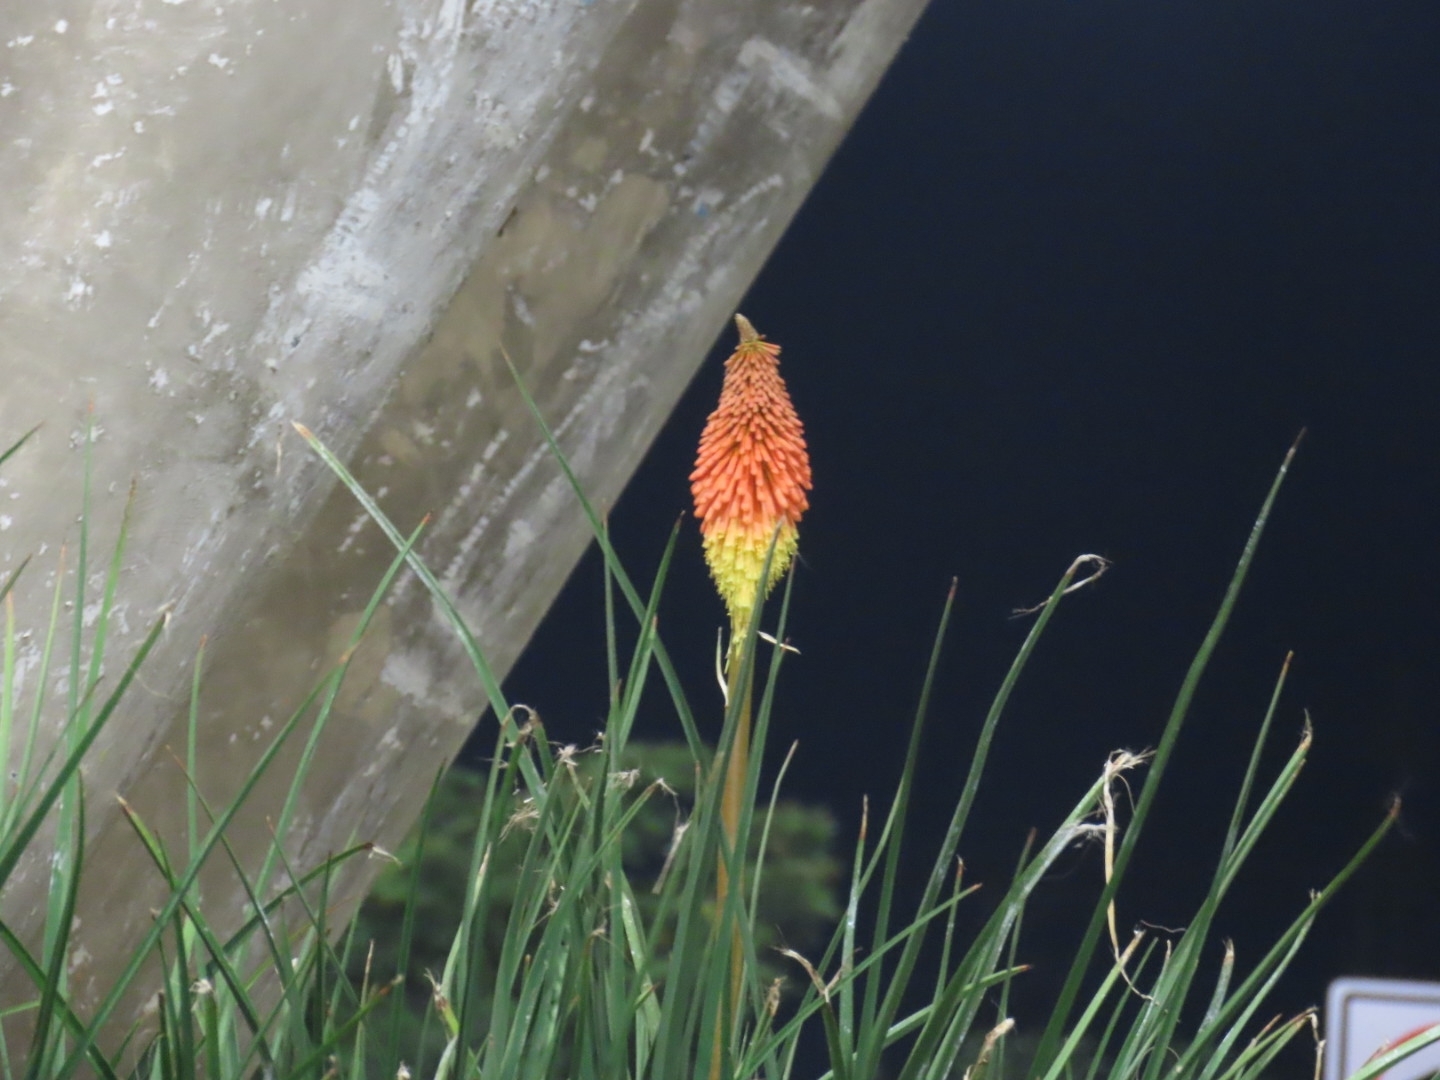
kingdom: Plantae
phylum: Tracheophyta
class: Liliopsida
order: Asparagales
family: Asphodelaceae
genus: Kniphofia
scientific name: Kniphofia uvaria
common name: Red-hot-poker
